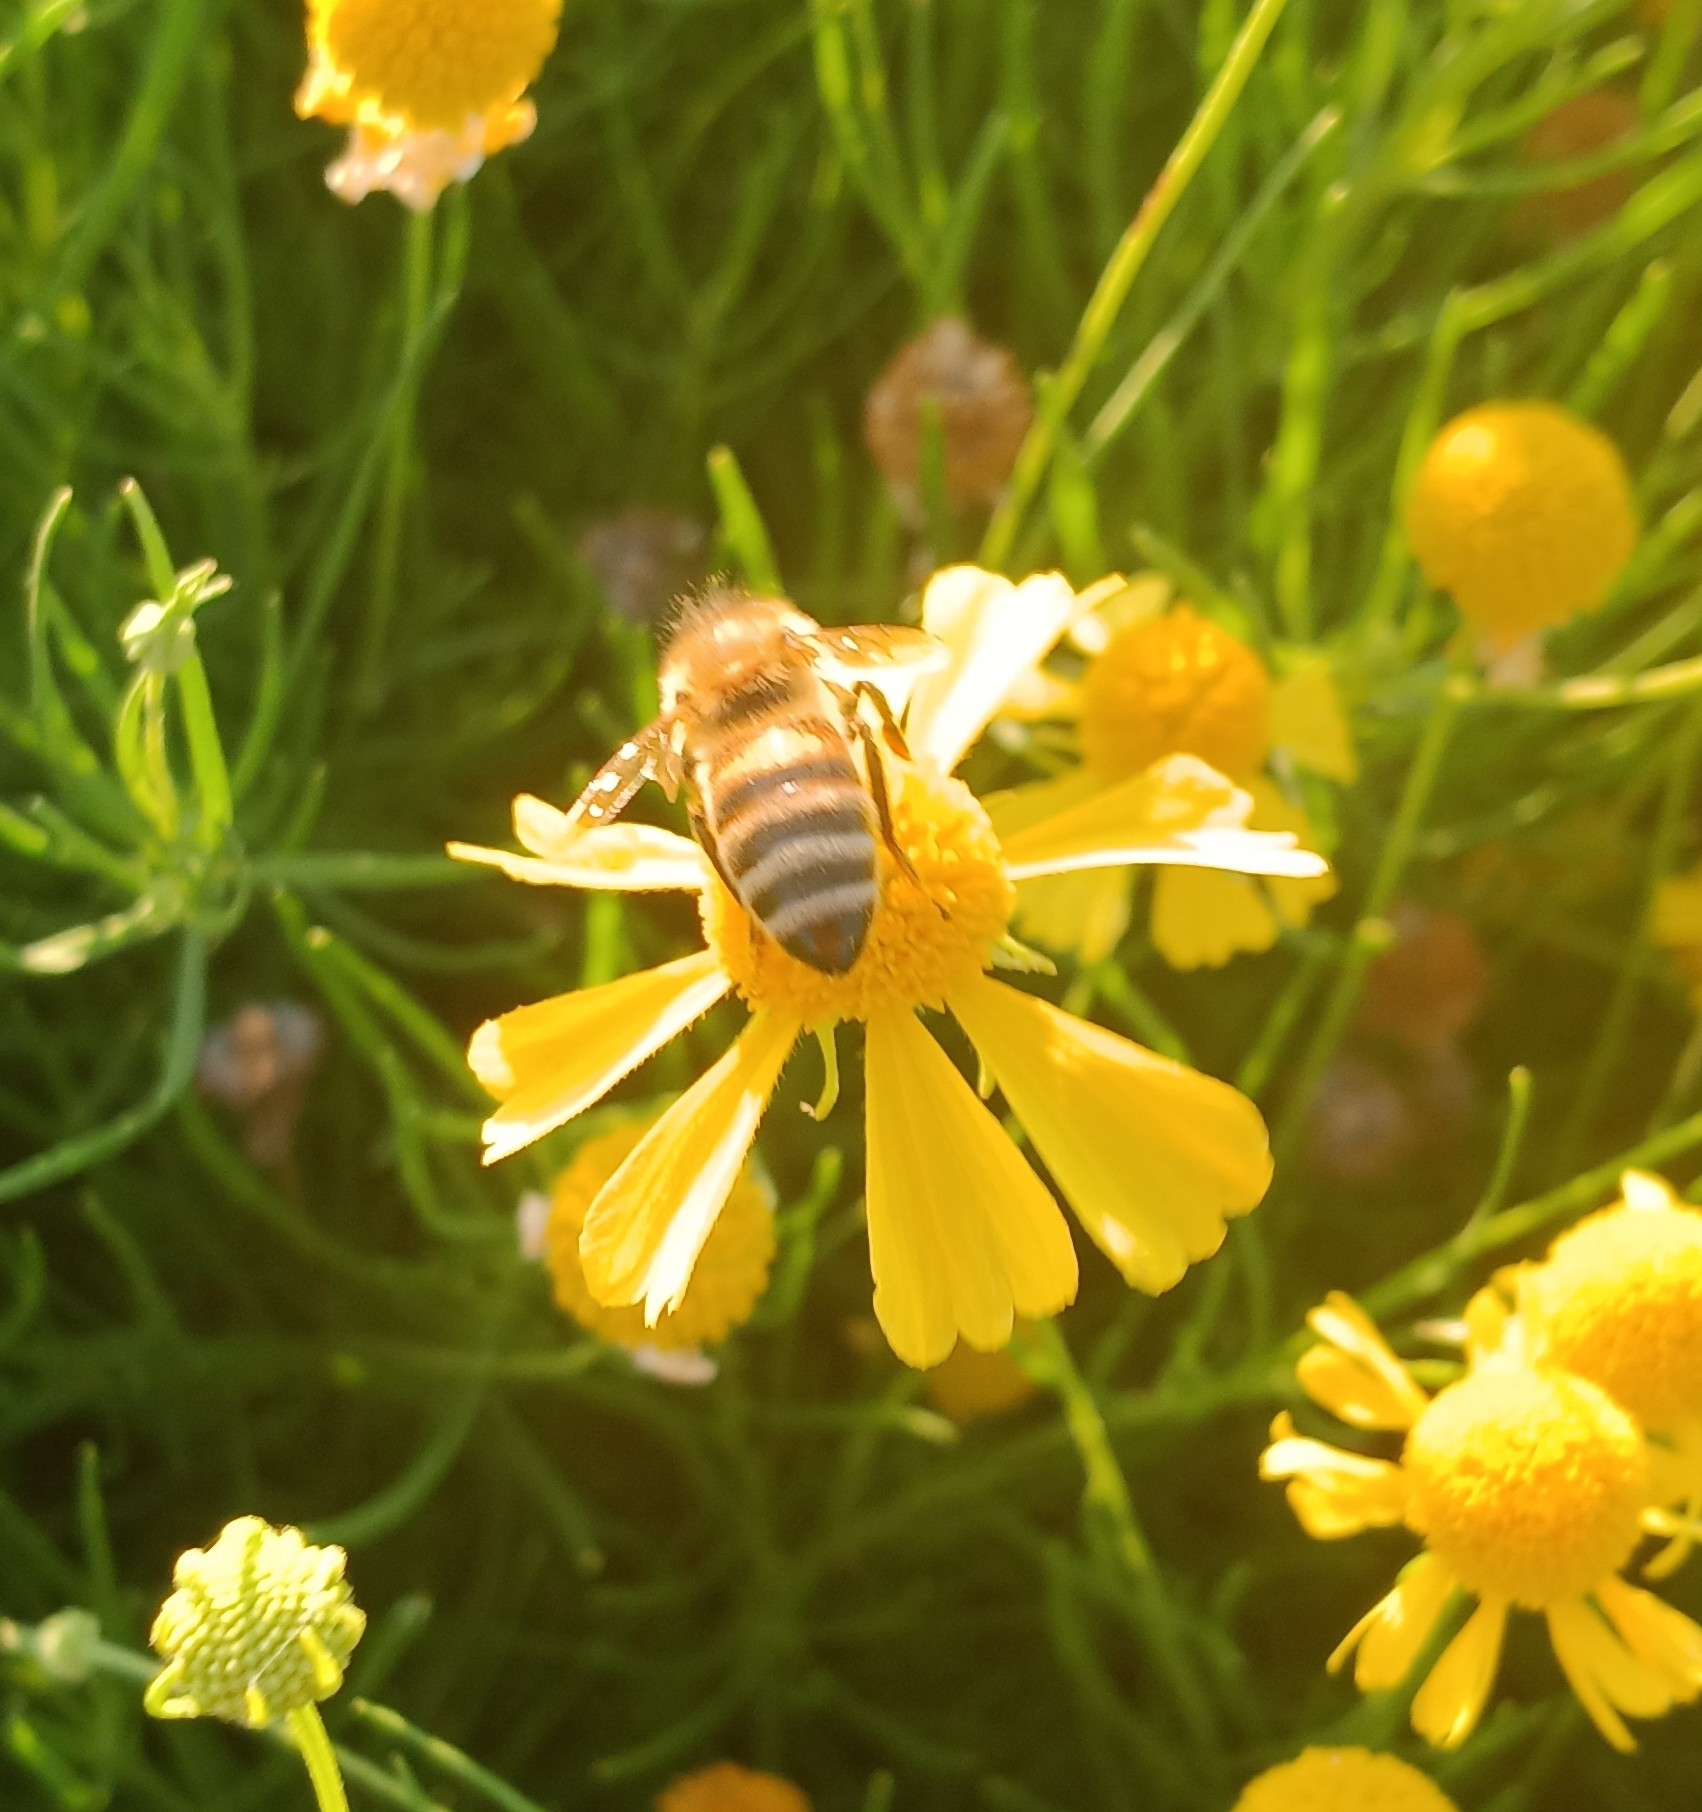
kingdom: Animalia
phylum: Arthropoda
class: Insecta
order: Hymenoptera
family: Apidae
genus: Apis
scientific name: Apis mellifera
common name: Honey bee
